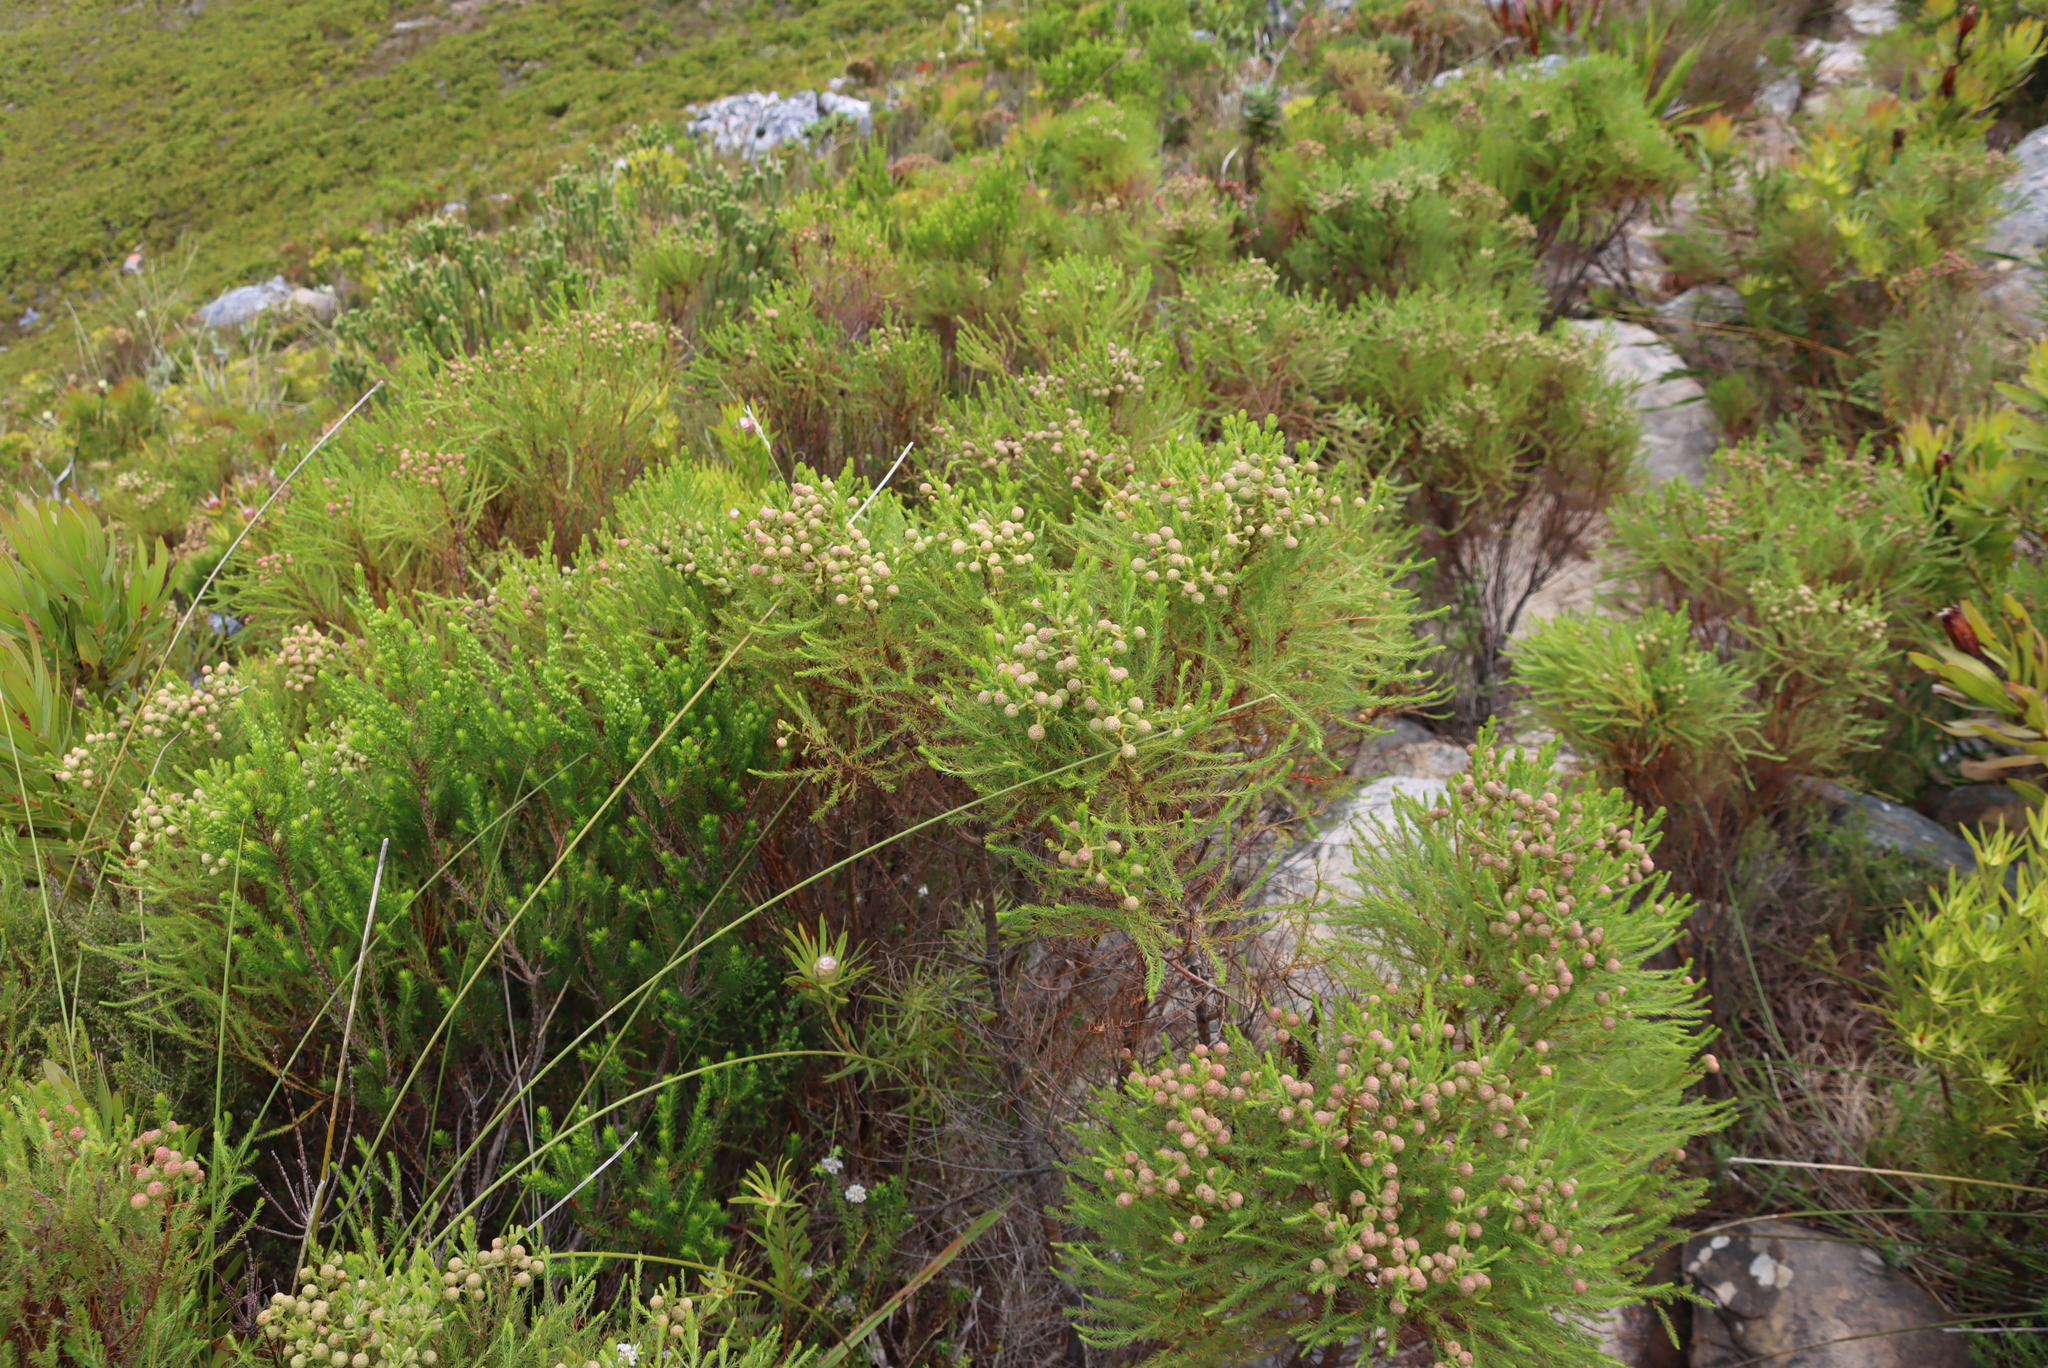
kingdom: Plantae
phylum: Tracheophyta
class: Magnoliopsida
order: Bruniales
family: Bruniaceae
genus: Berzelia
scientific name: Berzelia lanuginosa
